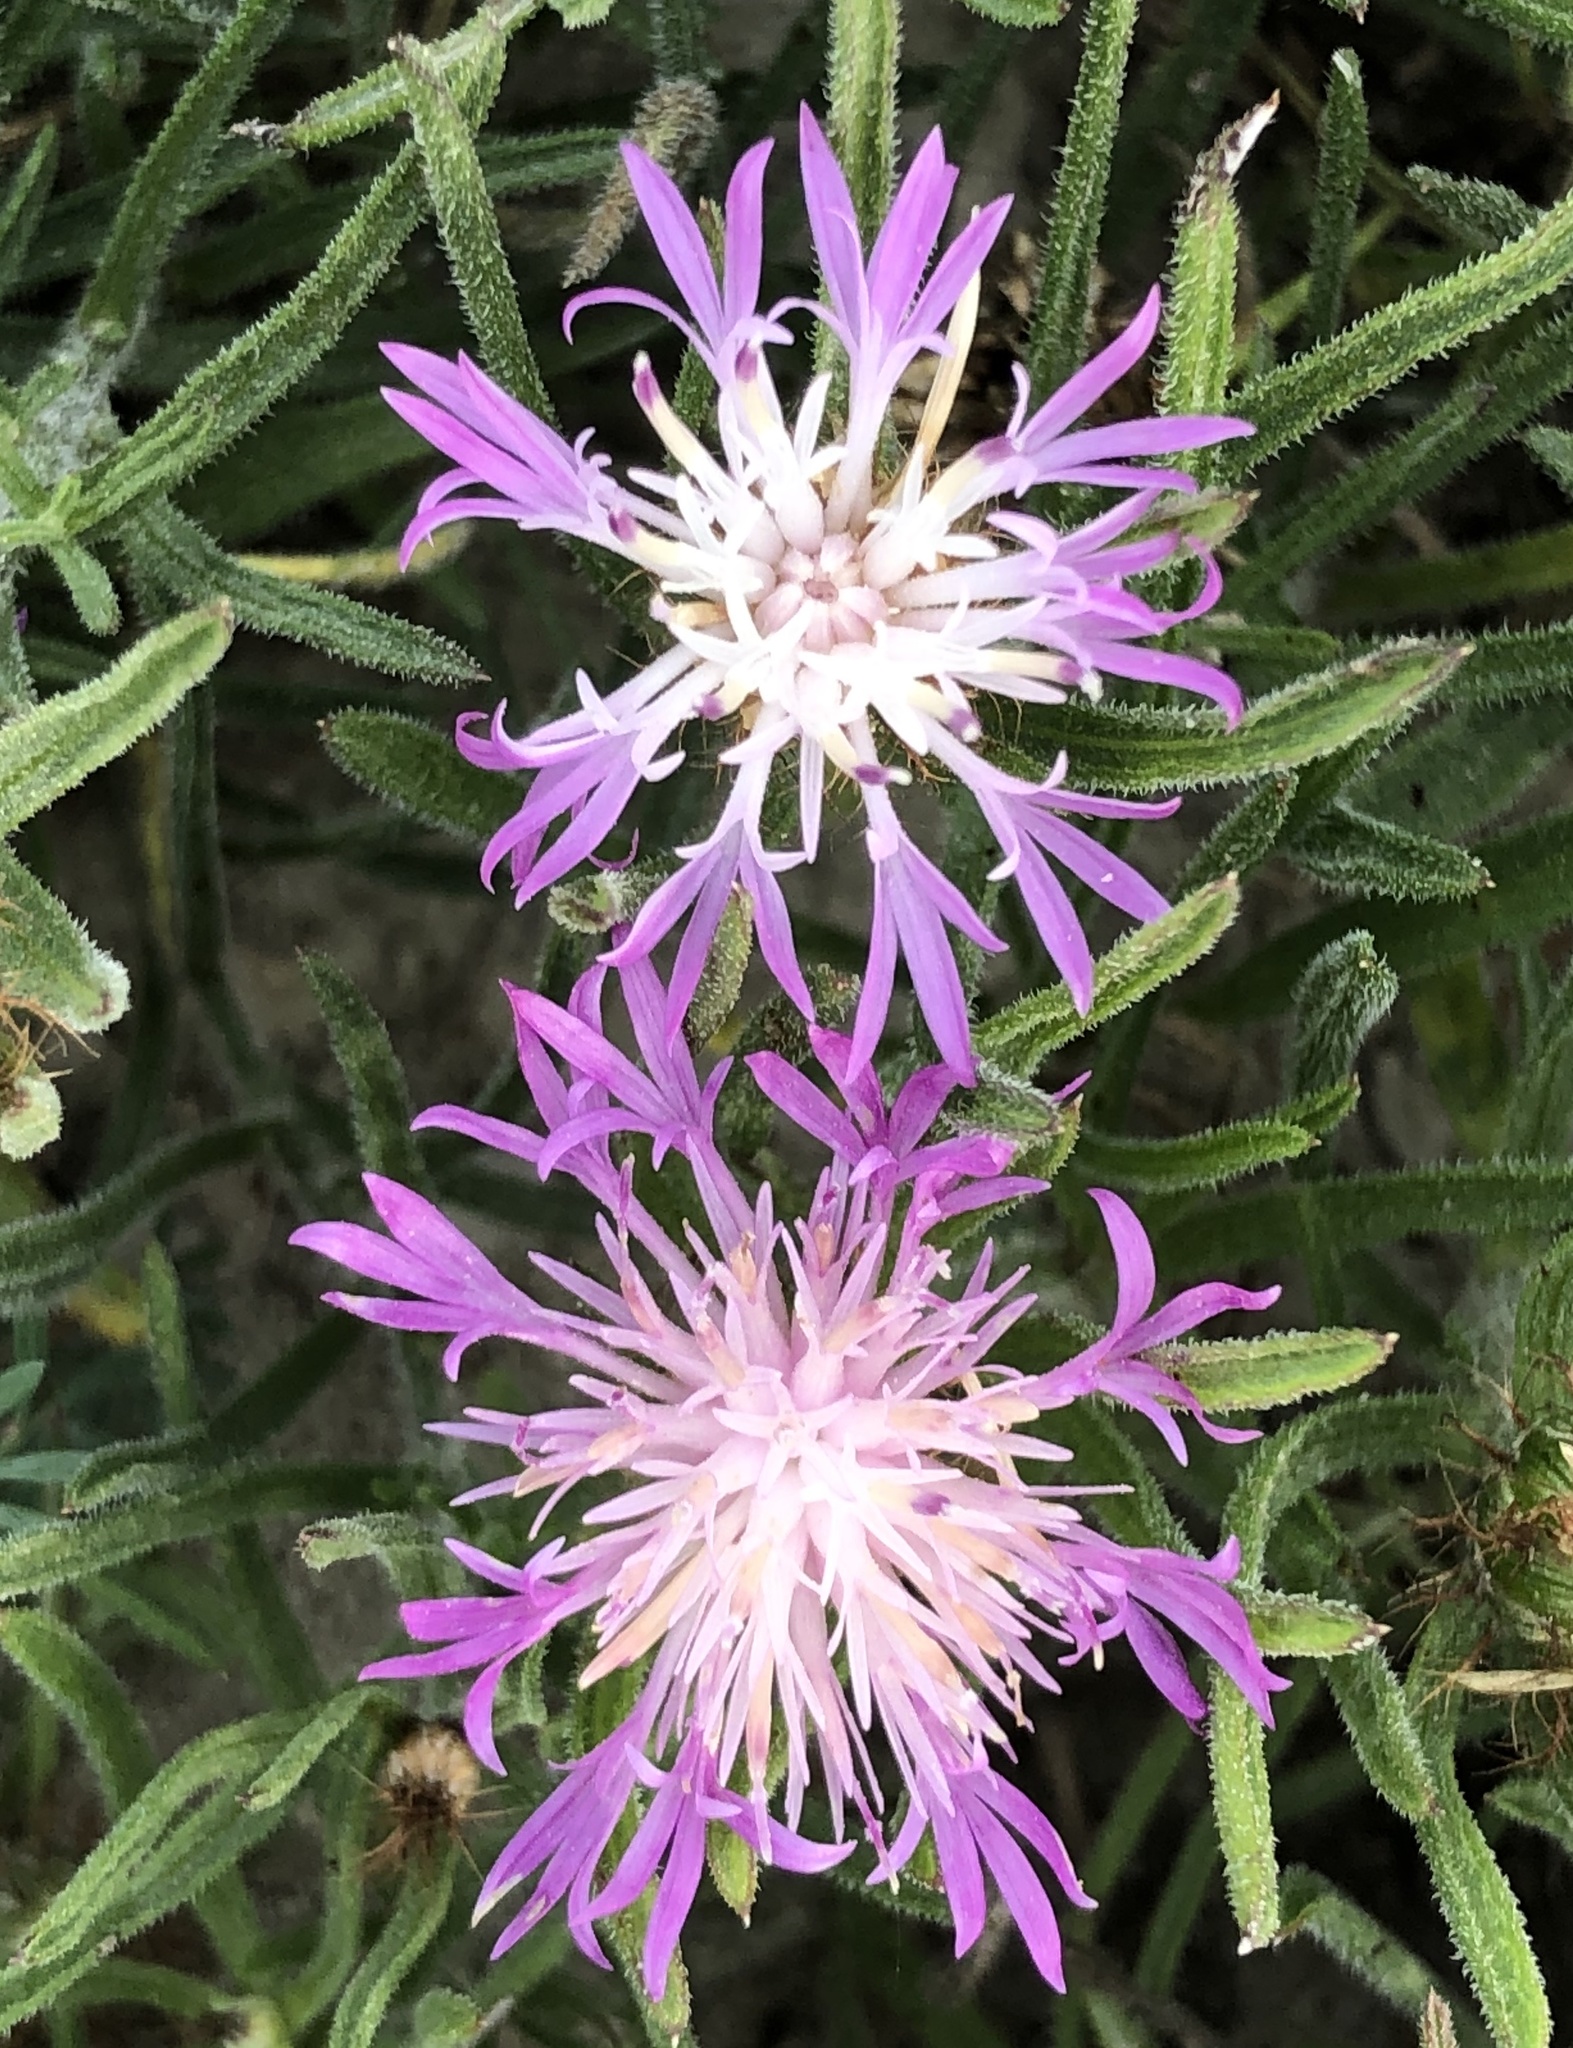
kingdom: Plantae
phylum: Tracheophyta
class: Magnoliopsida
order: Asterales
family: Asteraceae
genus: Centaurea
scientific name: Centaurea linifolia
